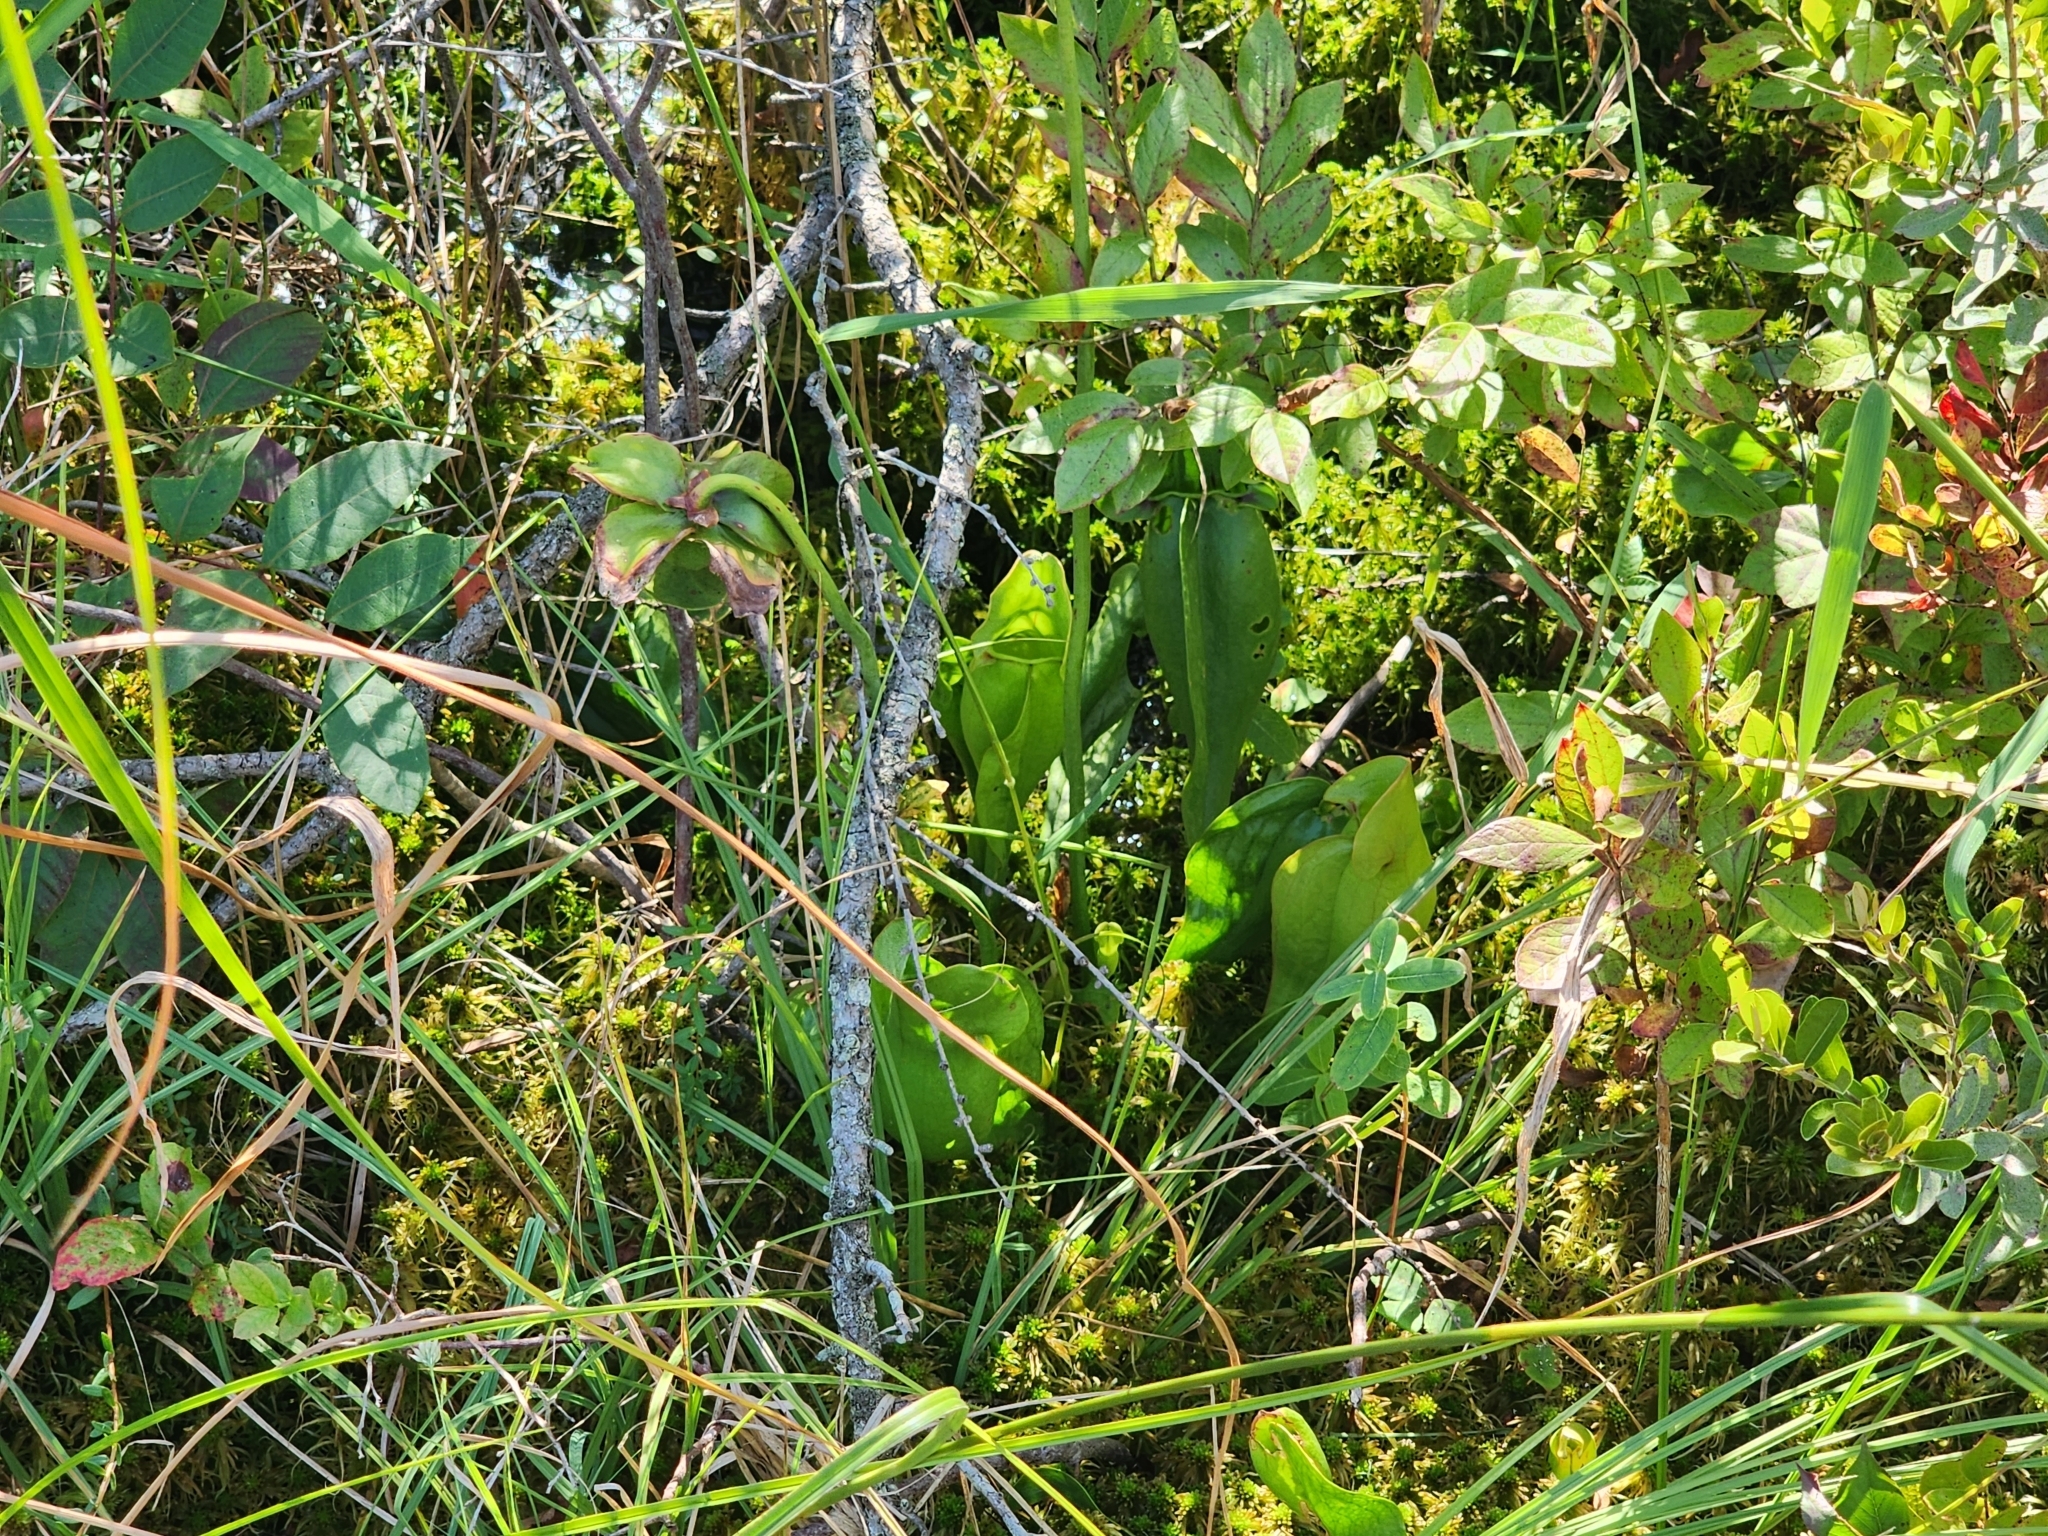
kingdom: Plantae
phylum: Tracheophyta
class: Magnoliopsida
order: Ericales
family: Sarraceniaceae
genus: Sarracenia
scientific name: Sarracenia purpurea
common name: Pitcherplant
